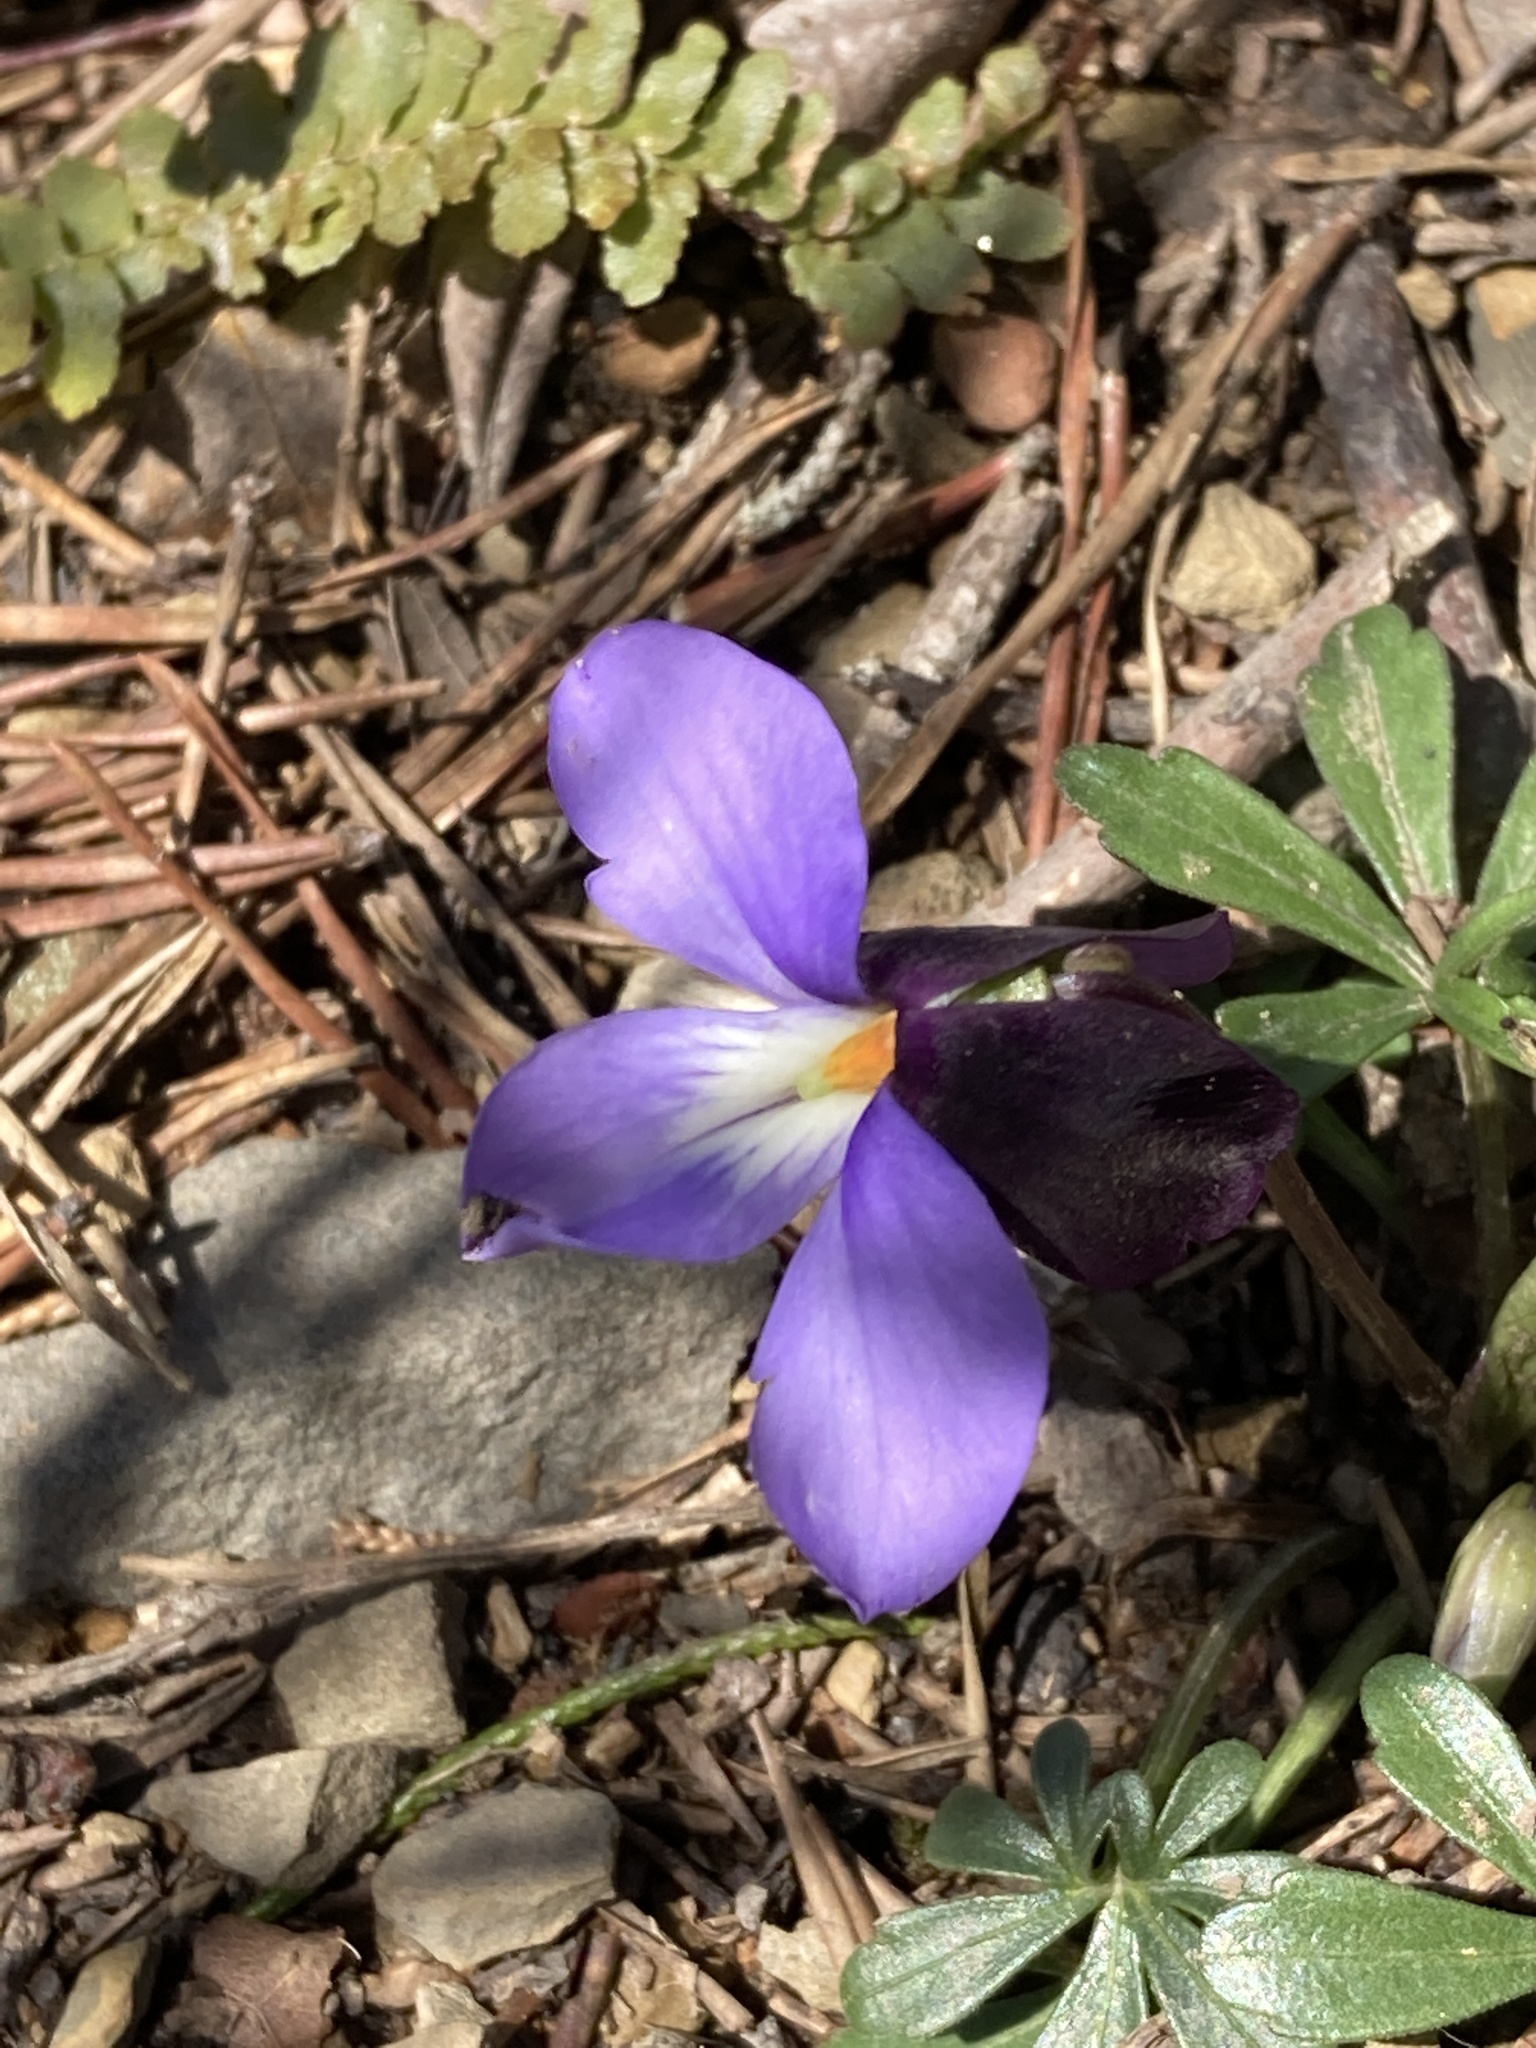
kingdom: Plantae
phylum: Tracheophyta
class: Magnoliopsida
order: Malpighiales
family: Violaceae
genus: Viola
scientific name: Viola pedata
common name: Pansy violet
